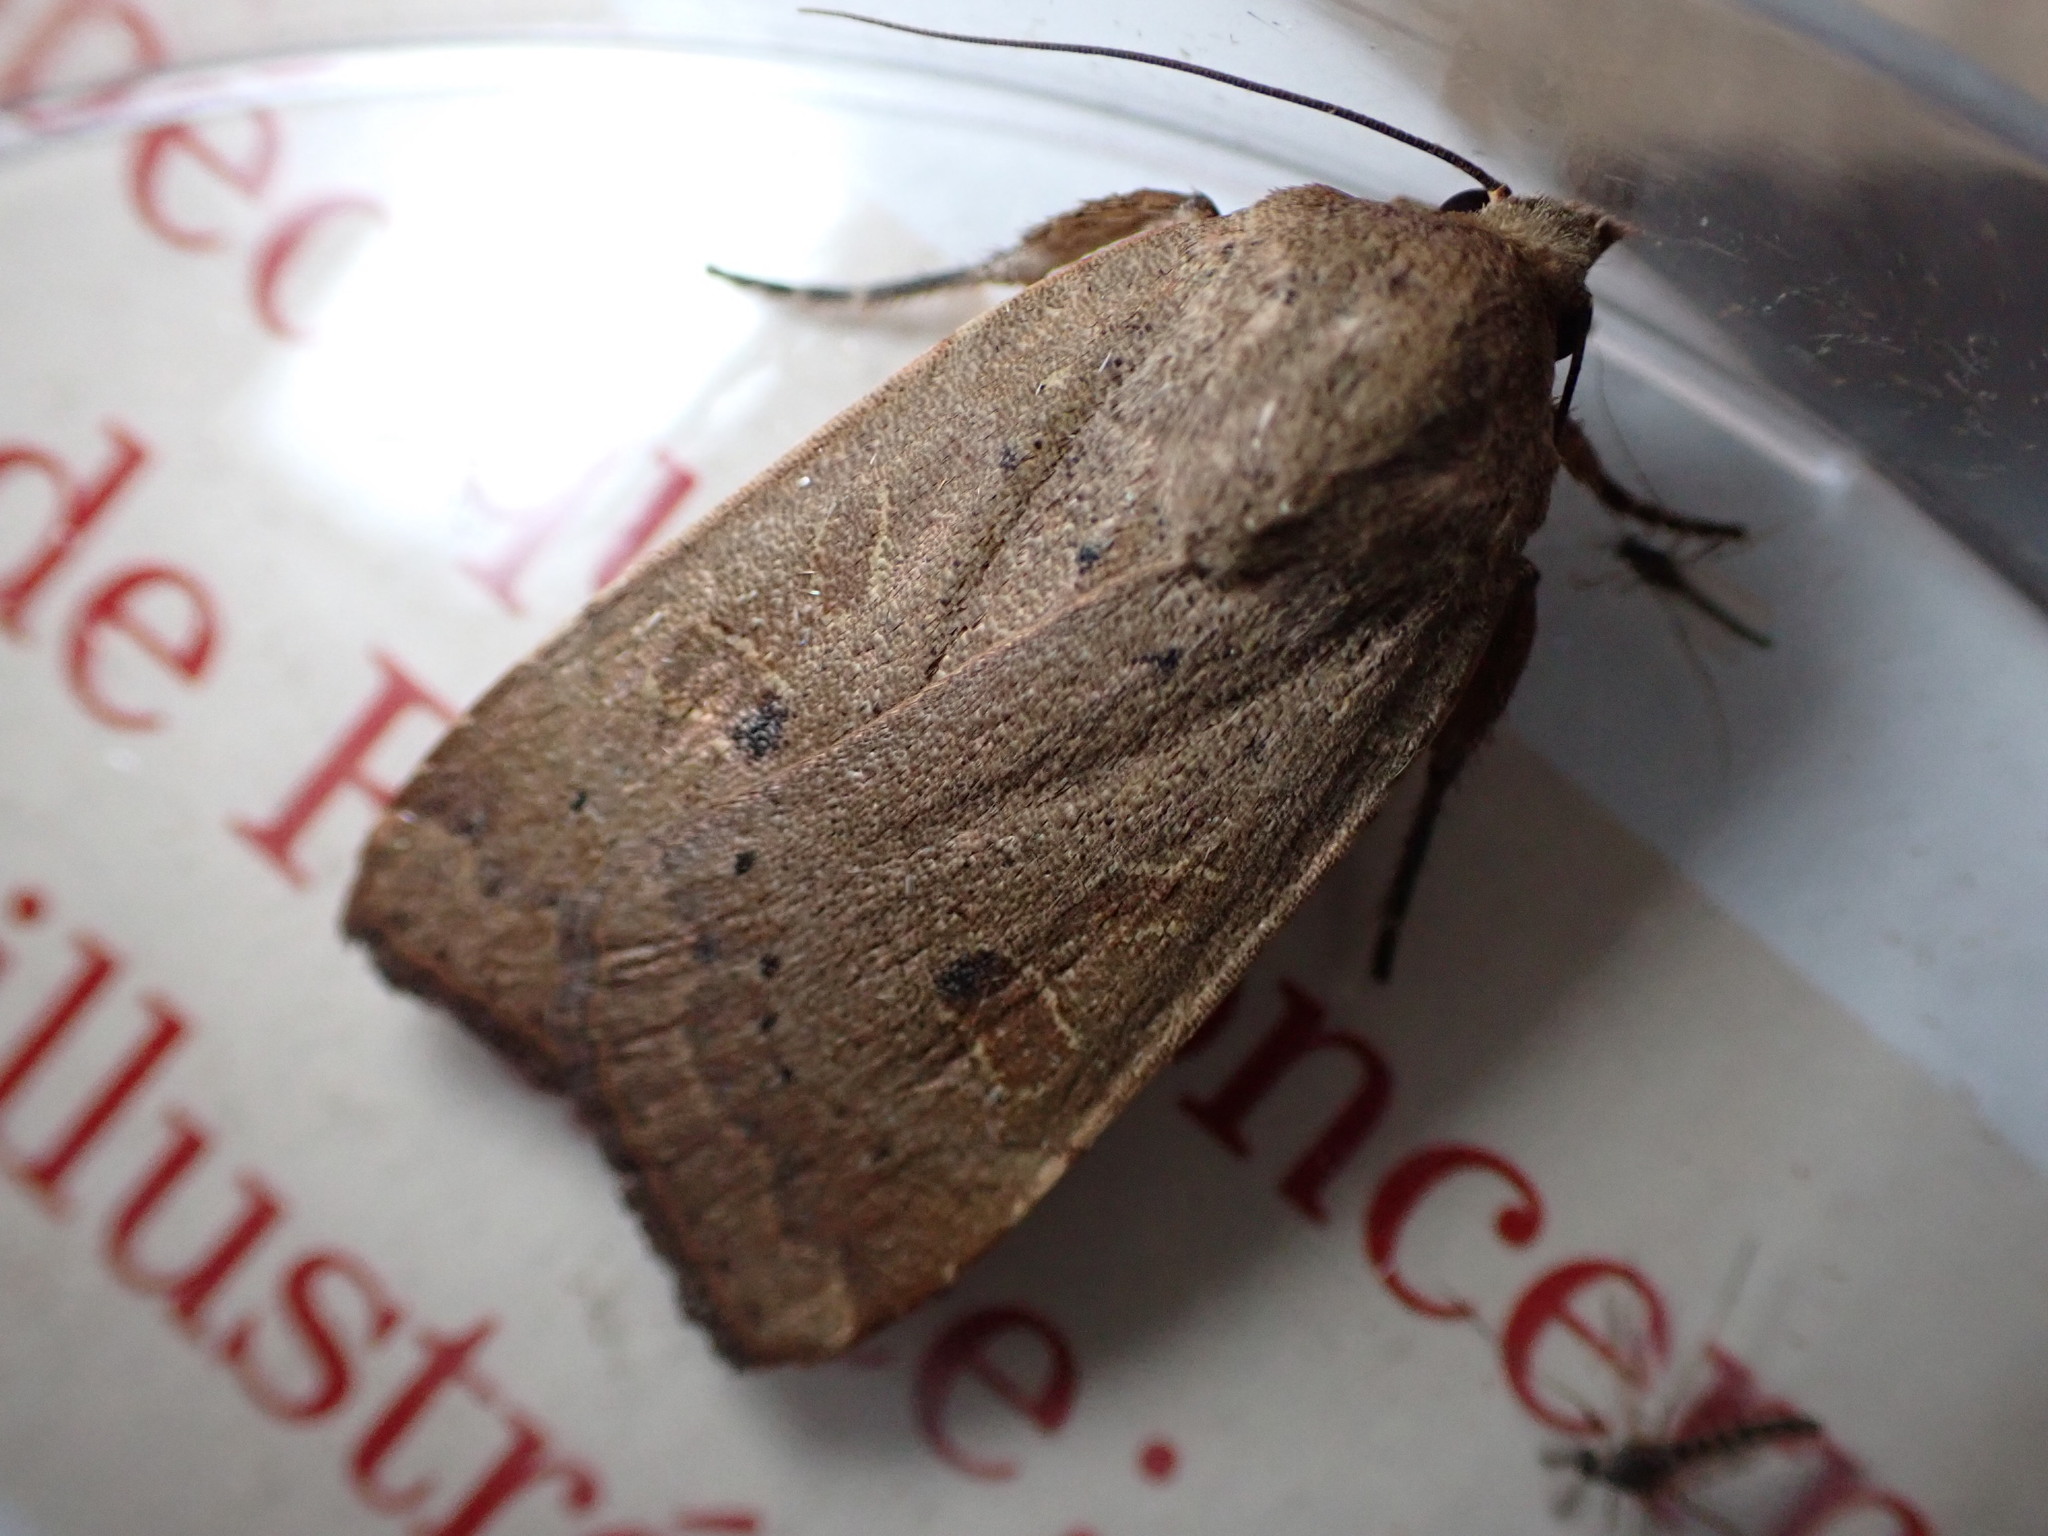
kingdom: Animalia
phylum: Arthropoda
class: Insecta
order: Lepidoptera
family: Noctuidae
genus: Noctua
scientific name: Noctua comes
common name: Lesser yellow underwing
